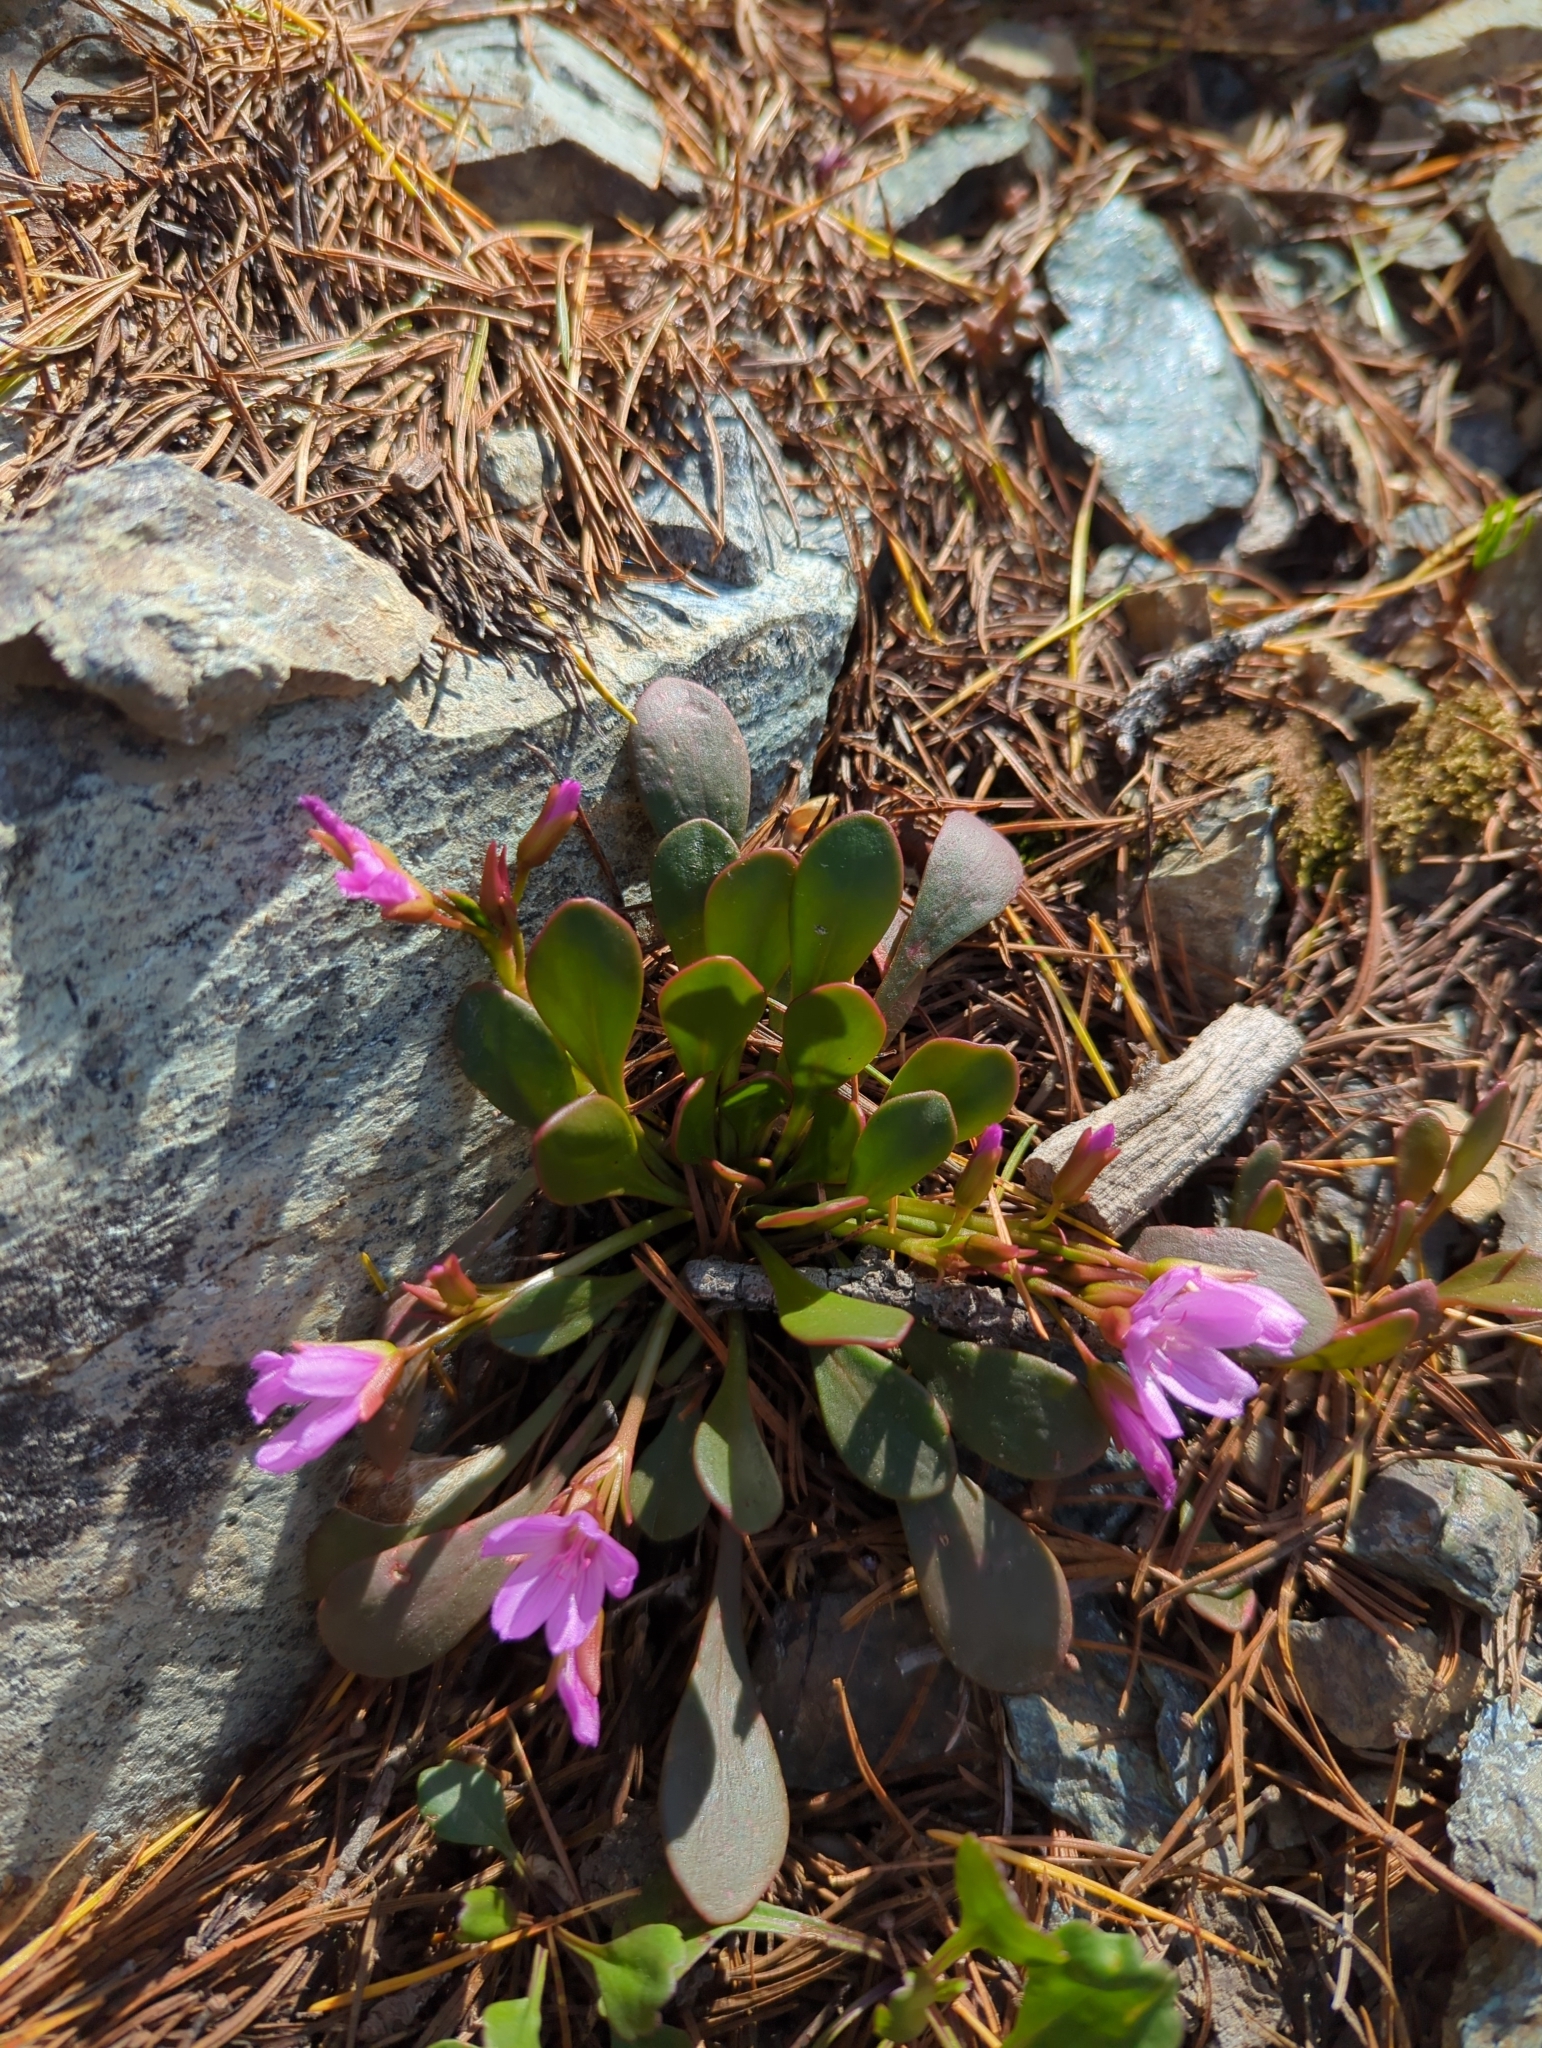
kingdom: Plantae
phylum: Tracheophyta
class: Magnoliopsida
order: Caryophyllales
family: Montiaceae
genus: Claytonia
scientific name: Claytonia megarhiza
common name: Alpine spring beauty
